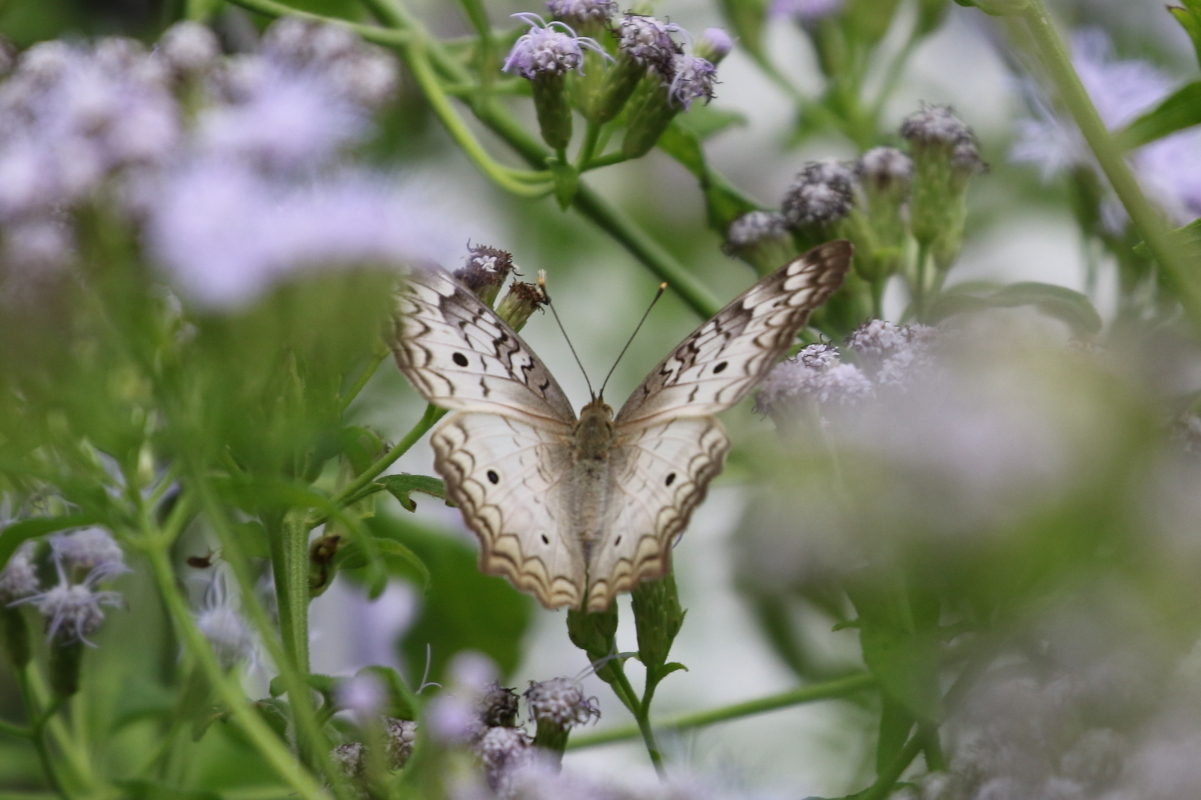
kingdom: Animalia
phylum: Arthropoda
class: Insecta
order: Lepidoptera
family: Nymphalidae
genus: Anartia
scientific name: Anartia jatrophae
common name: White peacock
